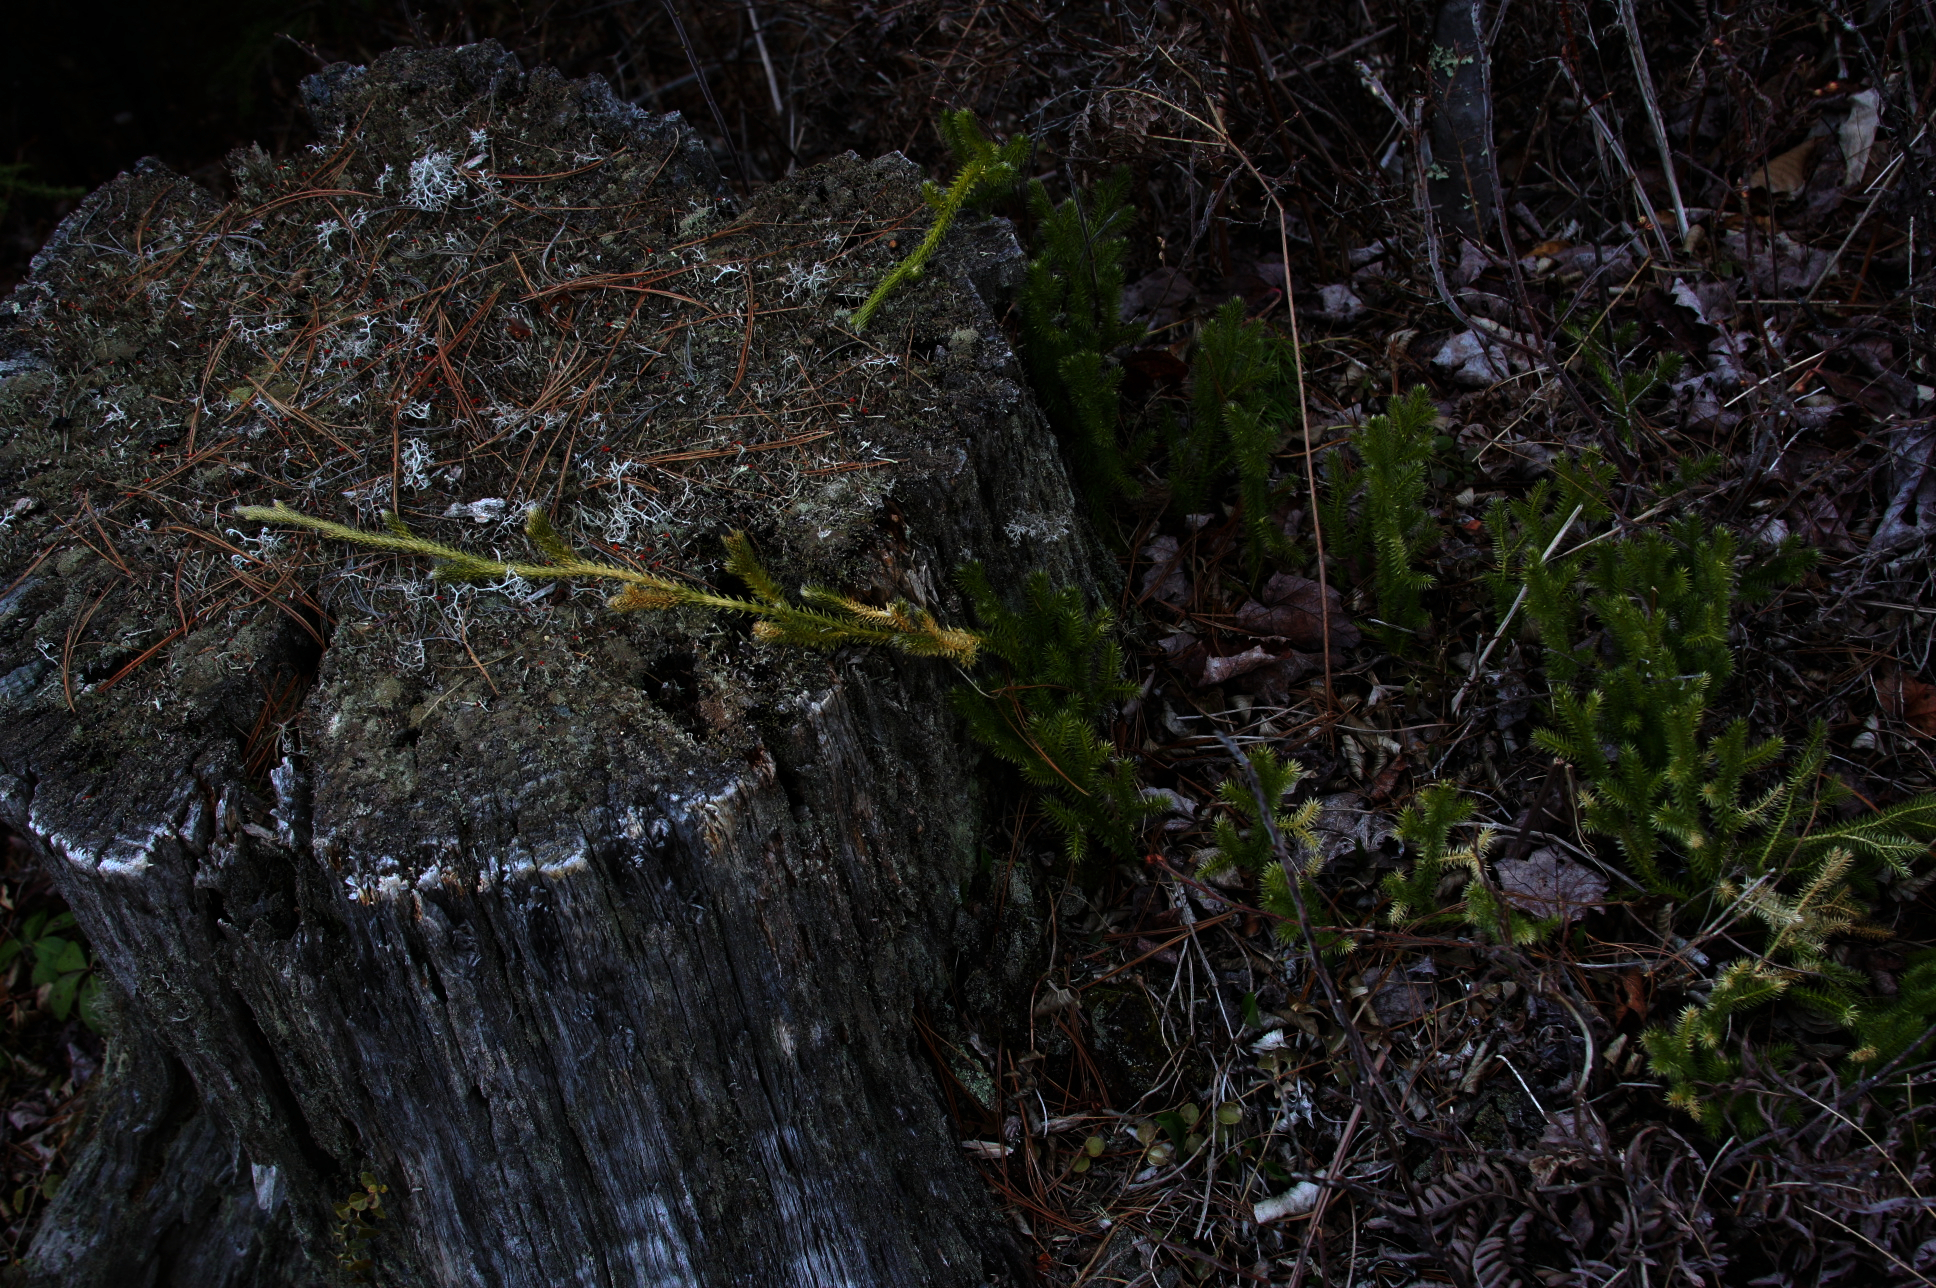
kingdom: Plantae
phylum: Tracheophyta
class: Lycopodiopsida
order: Lycopodiales
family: Lycopodiaceae
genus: Lycopodium
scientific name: Lycopodium clavatum
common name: Stag's-horn clubmoss
